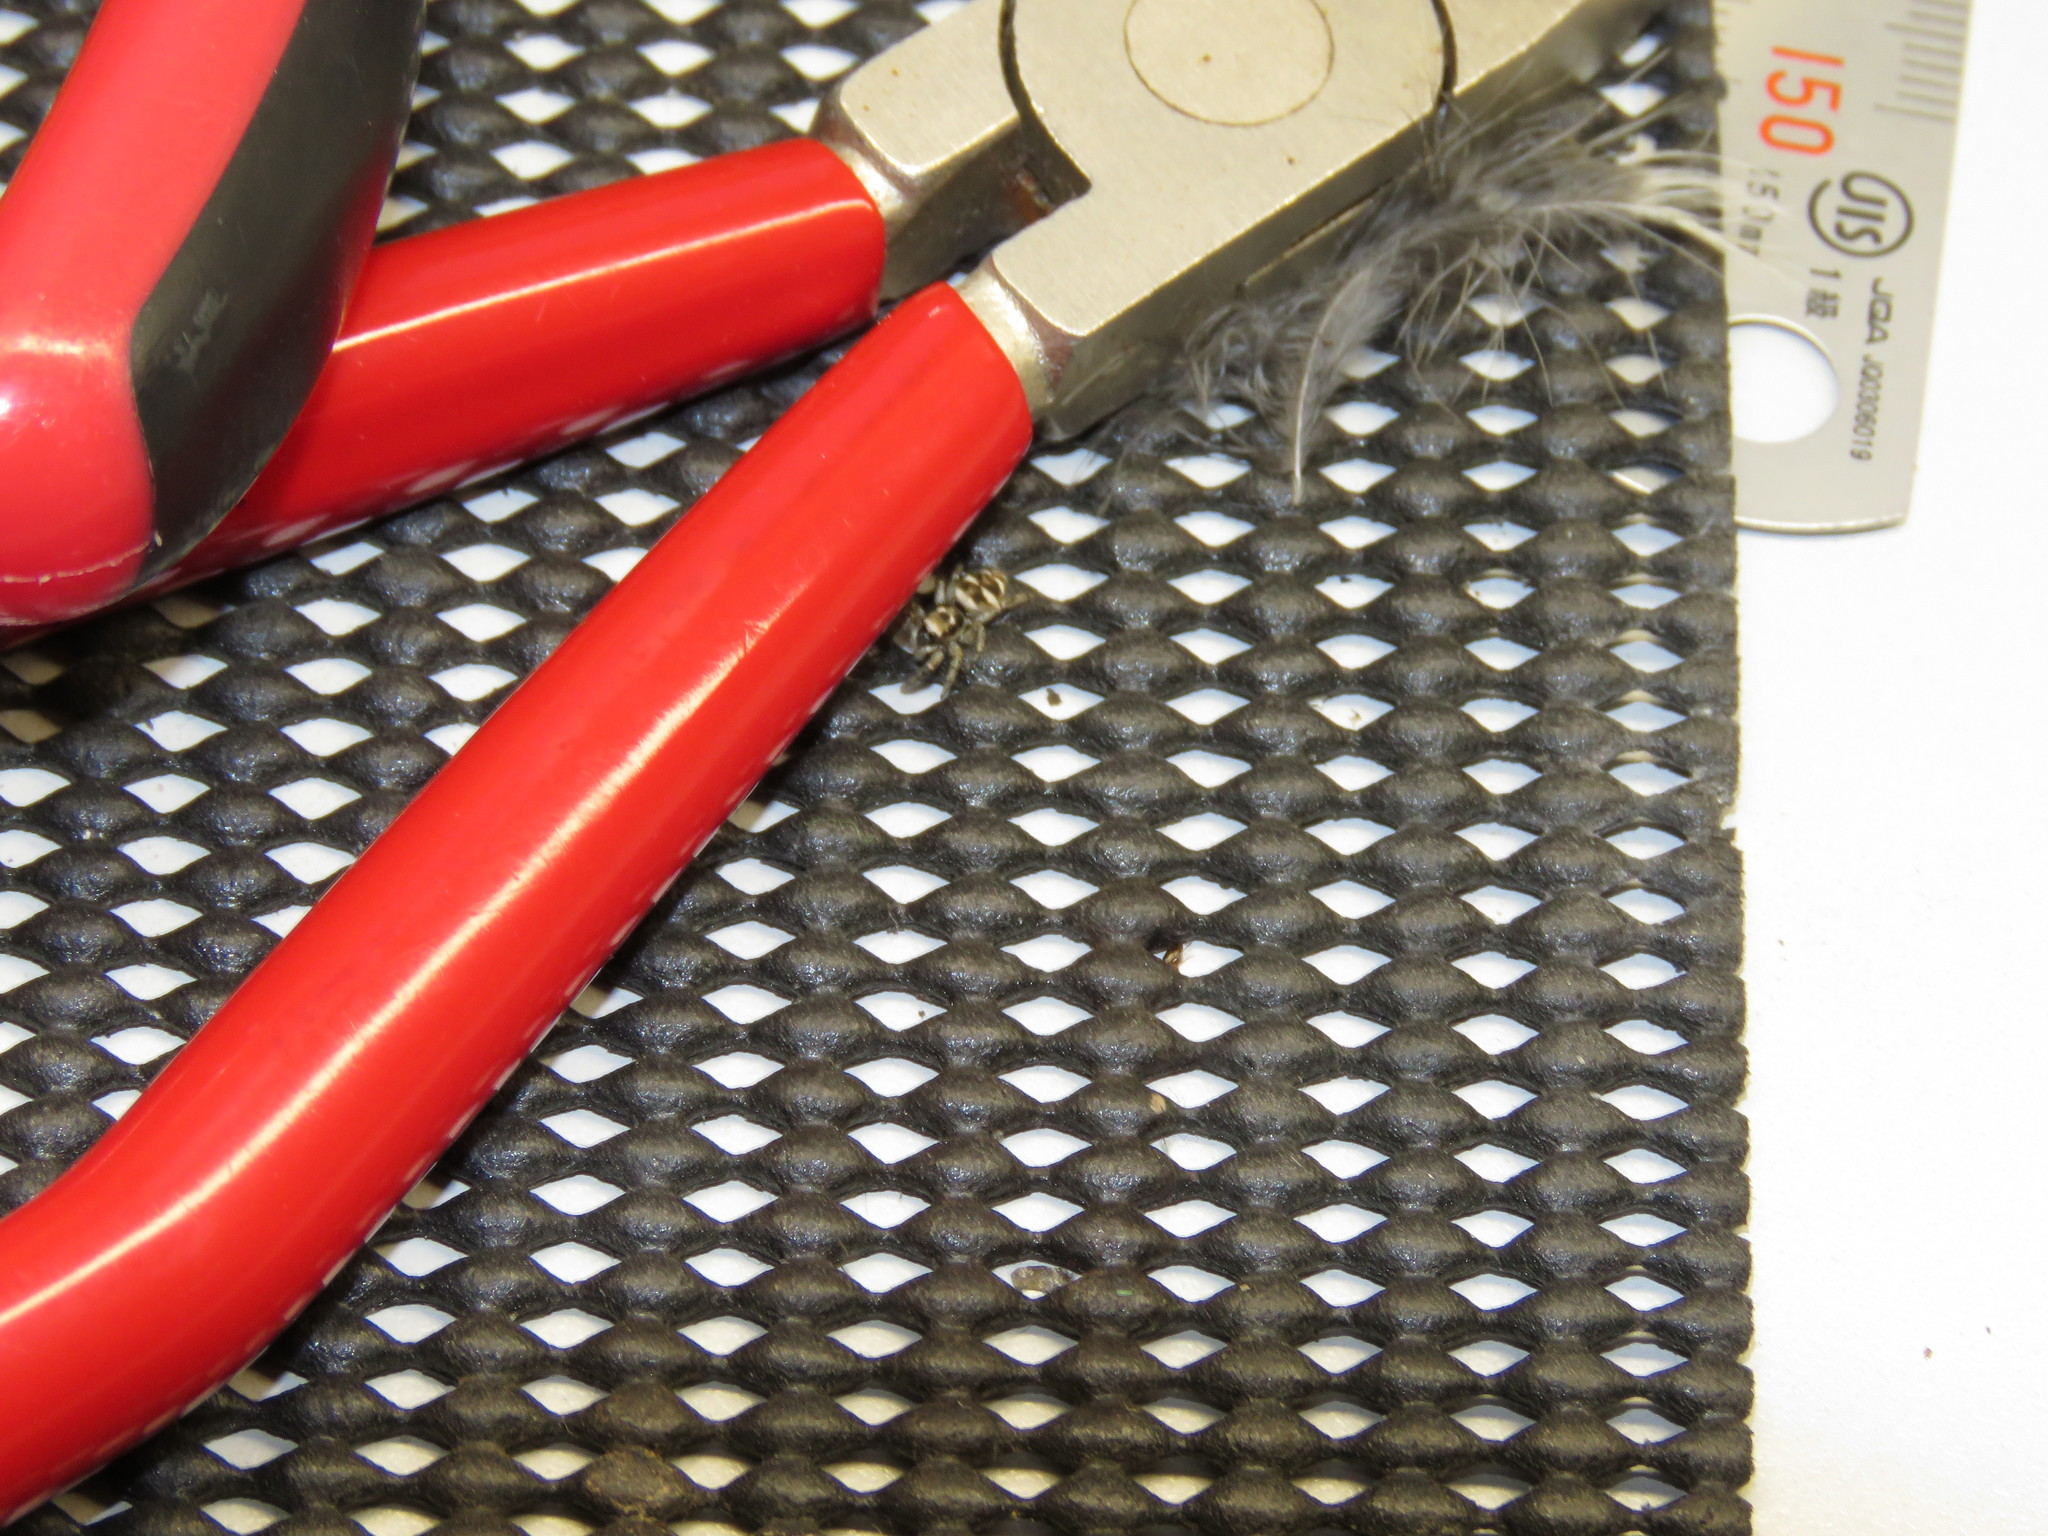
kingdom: Animalia
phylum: Arthropoda
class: Arachnida
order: Araneae
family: Salticidae
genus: Salticus
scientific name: Salticus scenicus
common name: Zebra jumper
